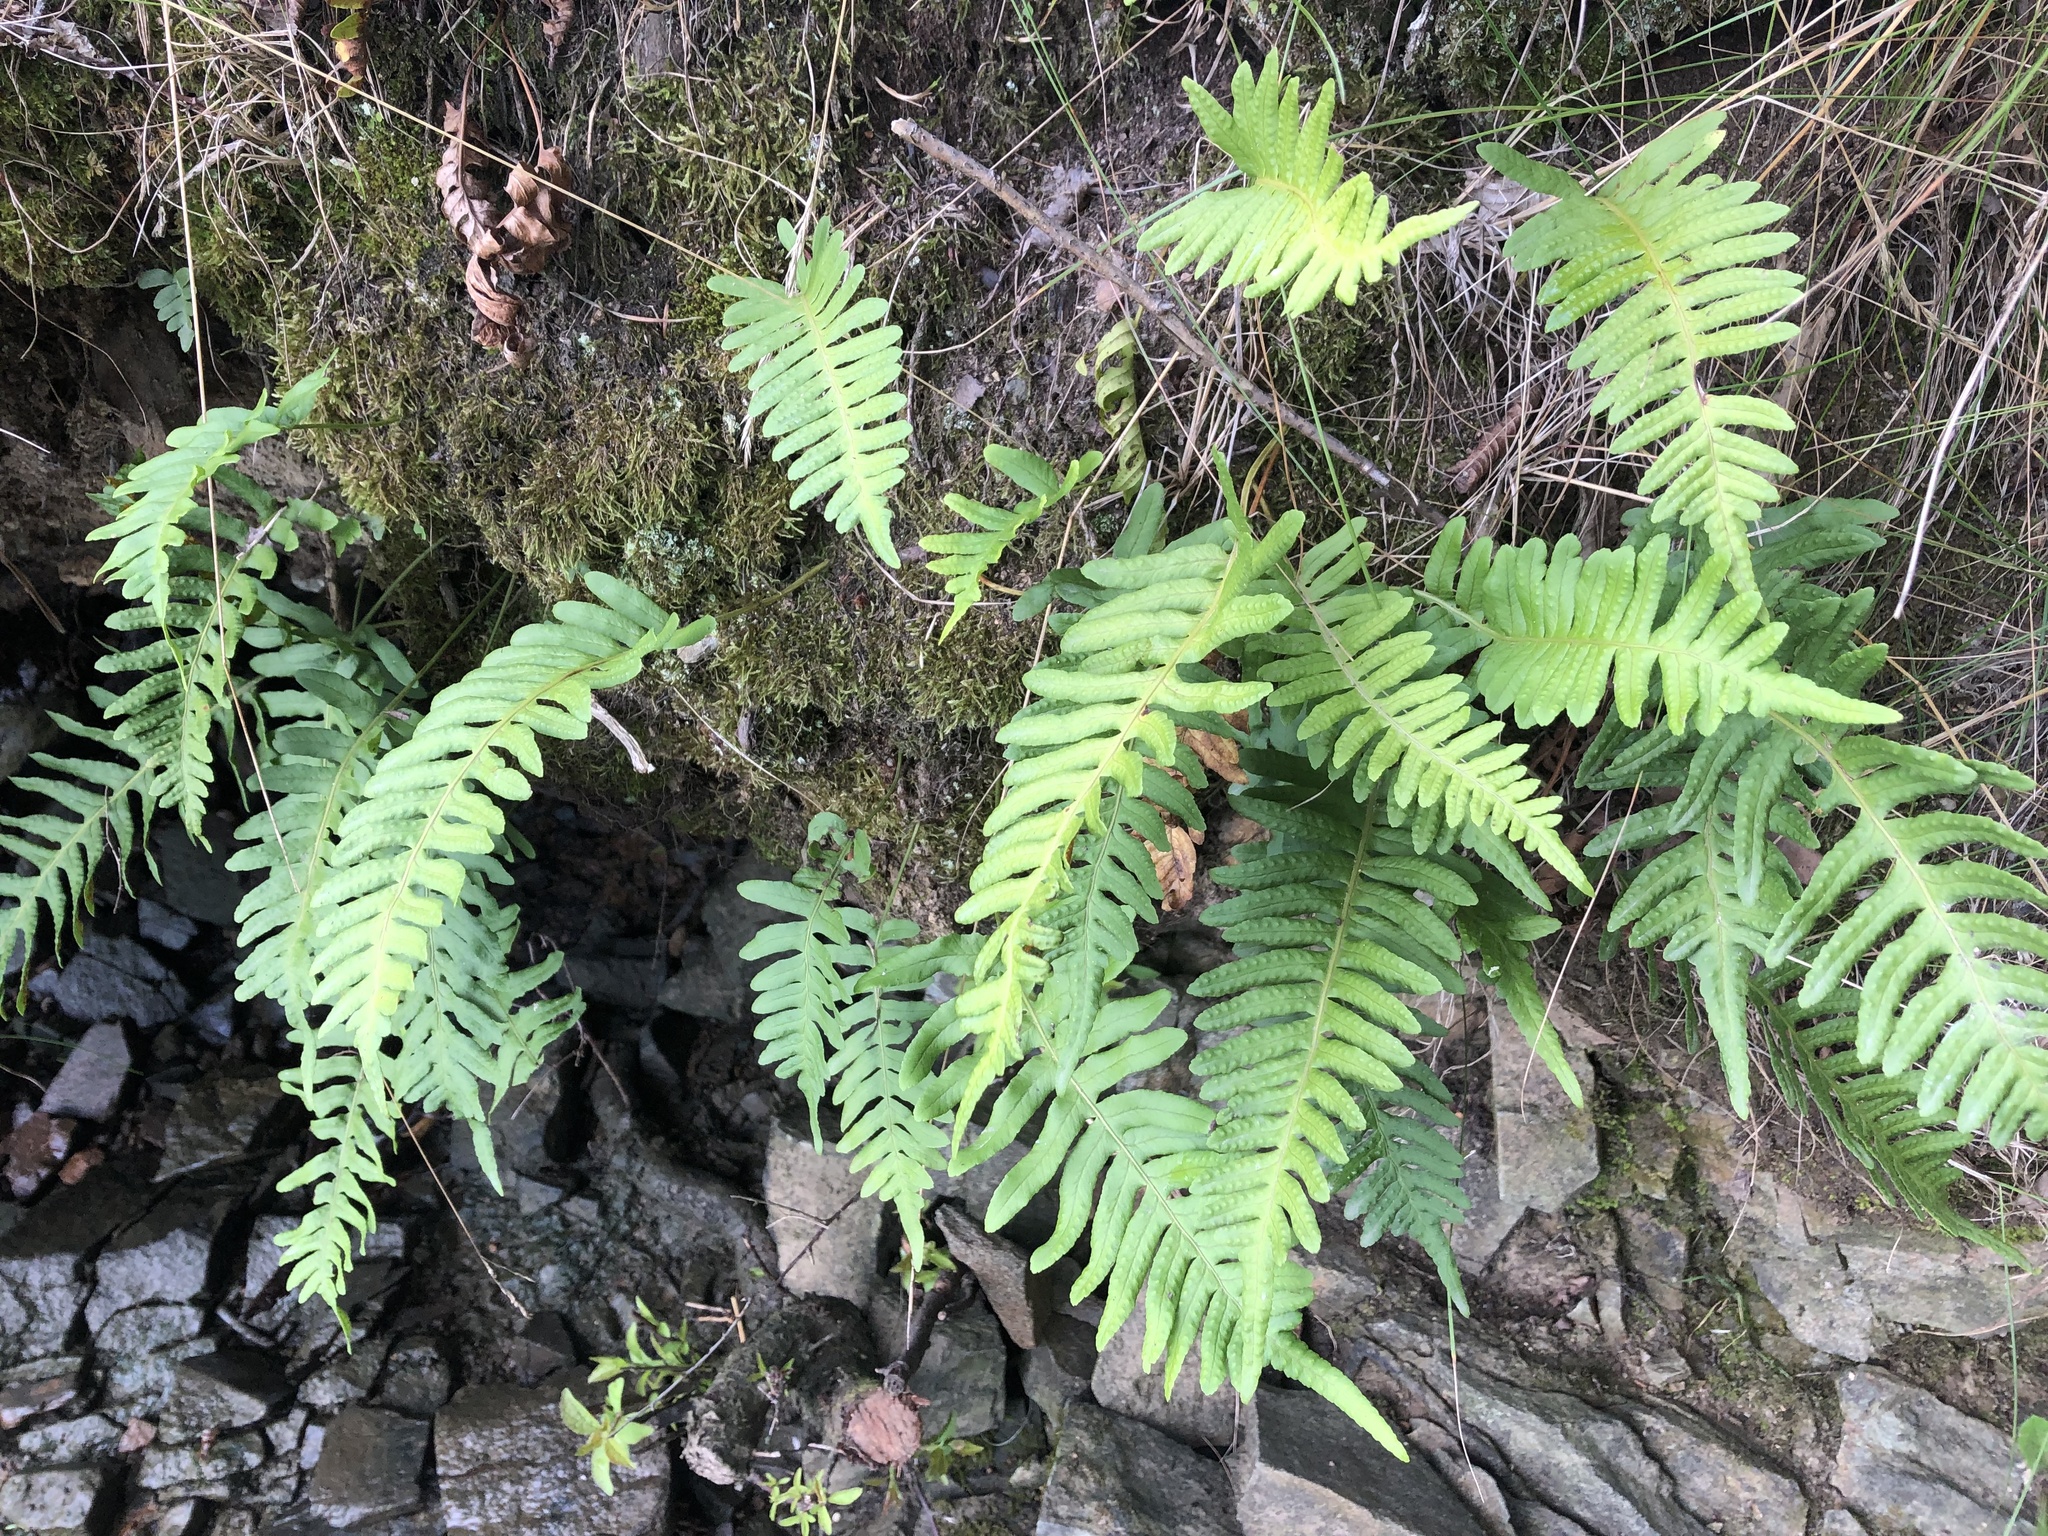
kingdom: Plantae
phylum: Tracheophyta
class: Polypodiopsida
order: Polypodiales
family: Polypodiaceae
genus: Polypodium
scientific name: Polypodium vulgare
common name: Common polypody
